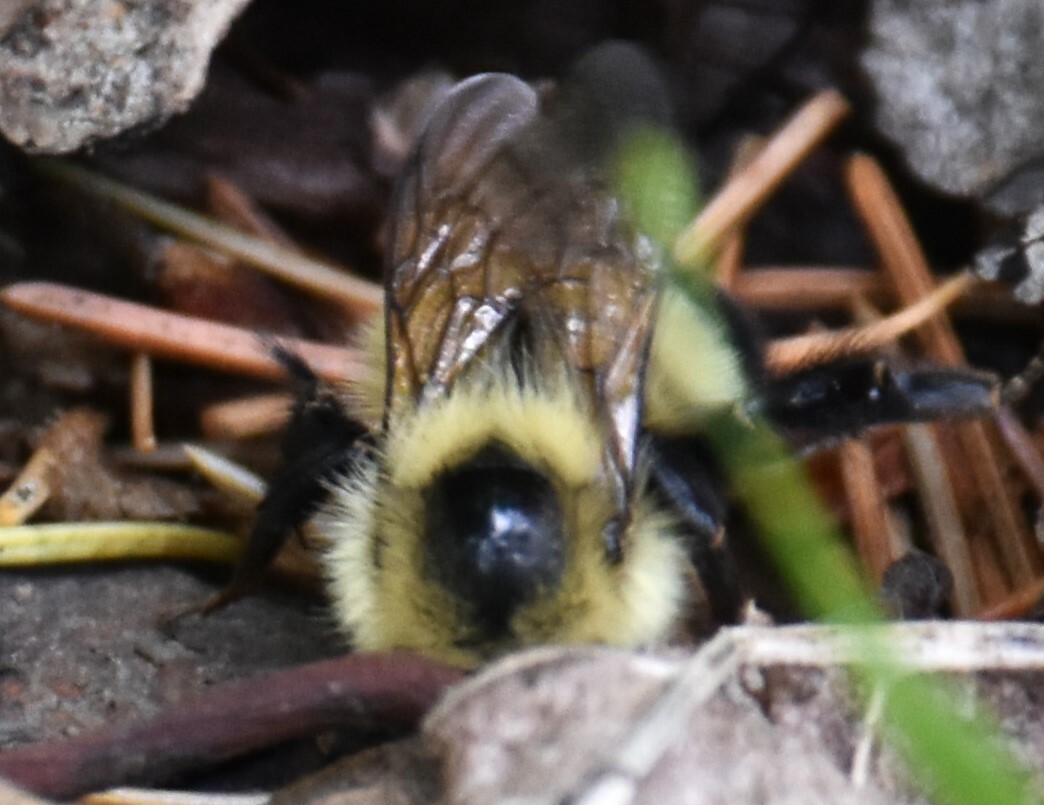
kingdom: Animalia
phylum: Arthropoda
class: Insecta
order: Hymenoptera
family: Apidae
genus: Bombus
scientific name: Bombus vagans
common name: Half-black bumble bee
